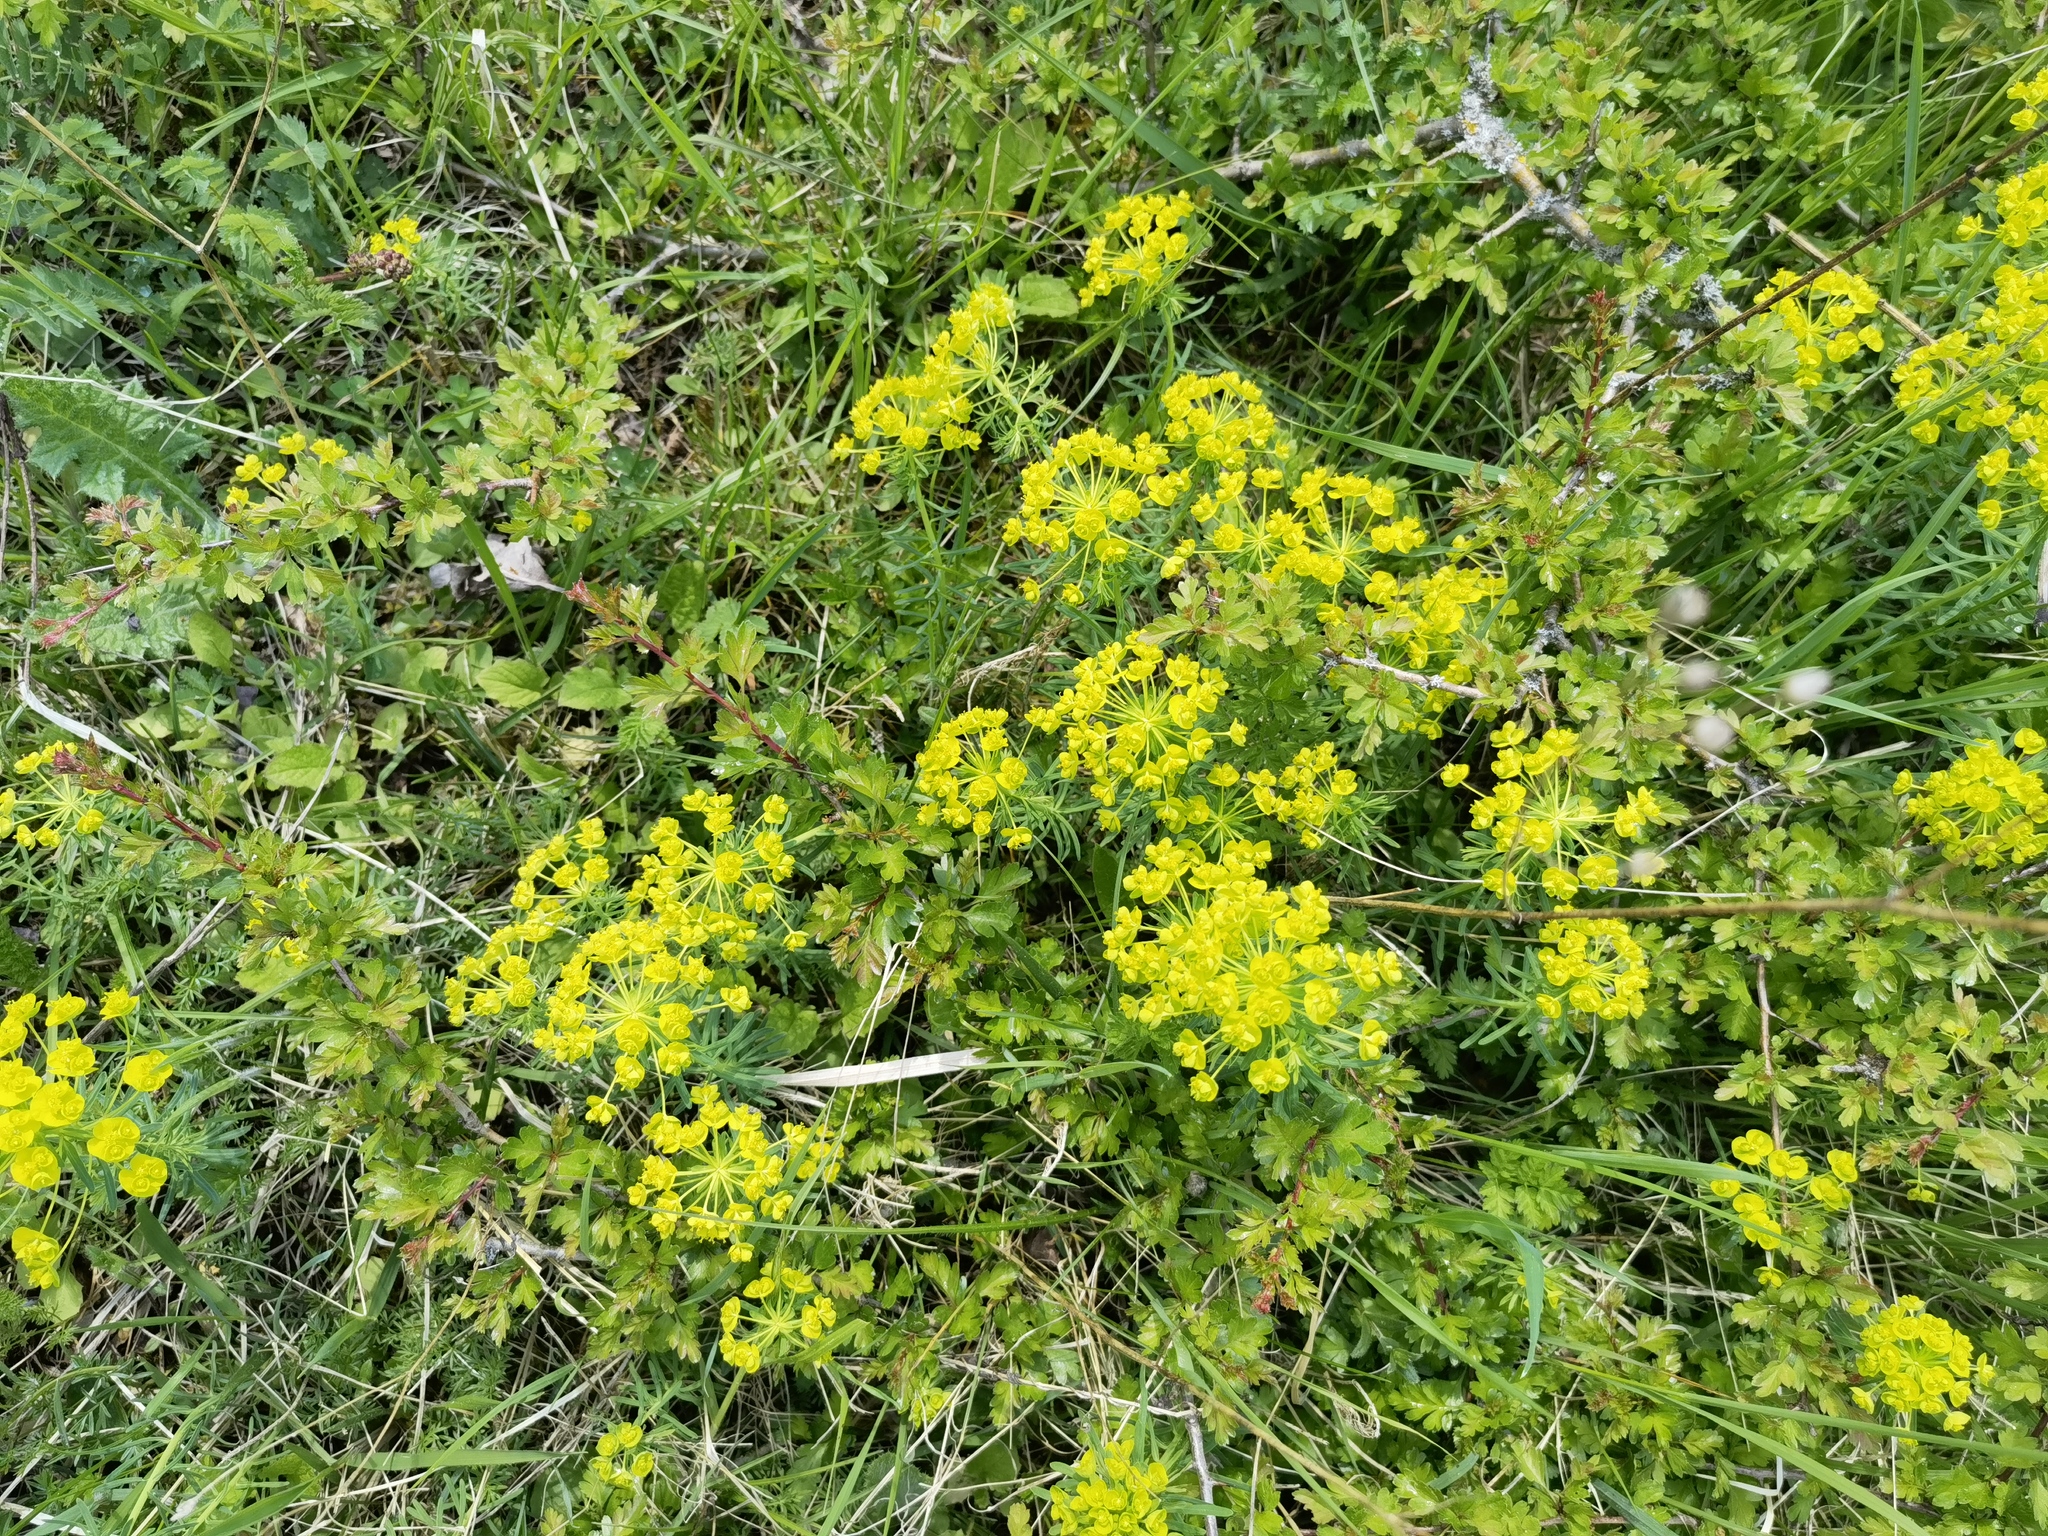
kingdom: Plantae
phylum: Tracheophyta
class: Magnoliopsida
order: Malpighiales
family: Euphorbiaceae
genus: Euphorbia
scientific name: Euphorbia cyparissias
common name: Cypress spurge
